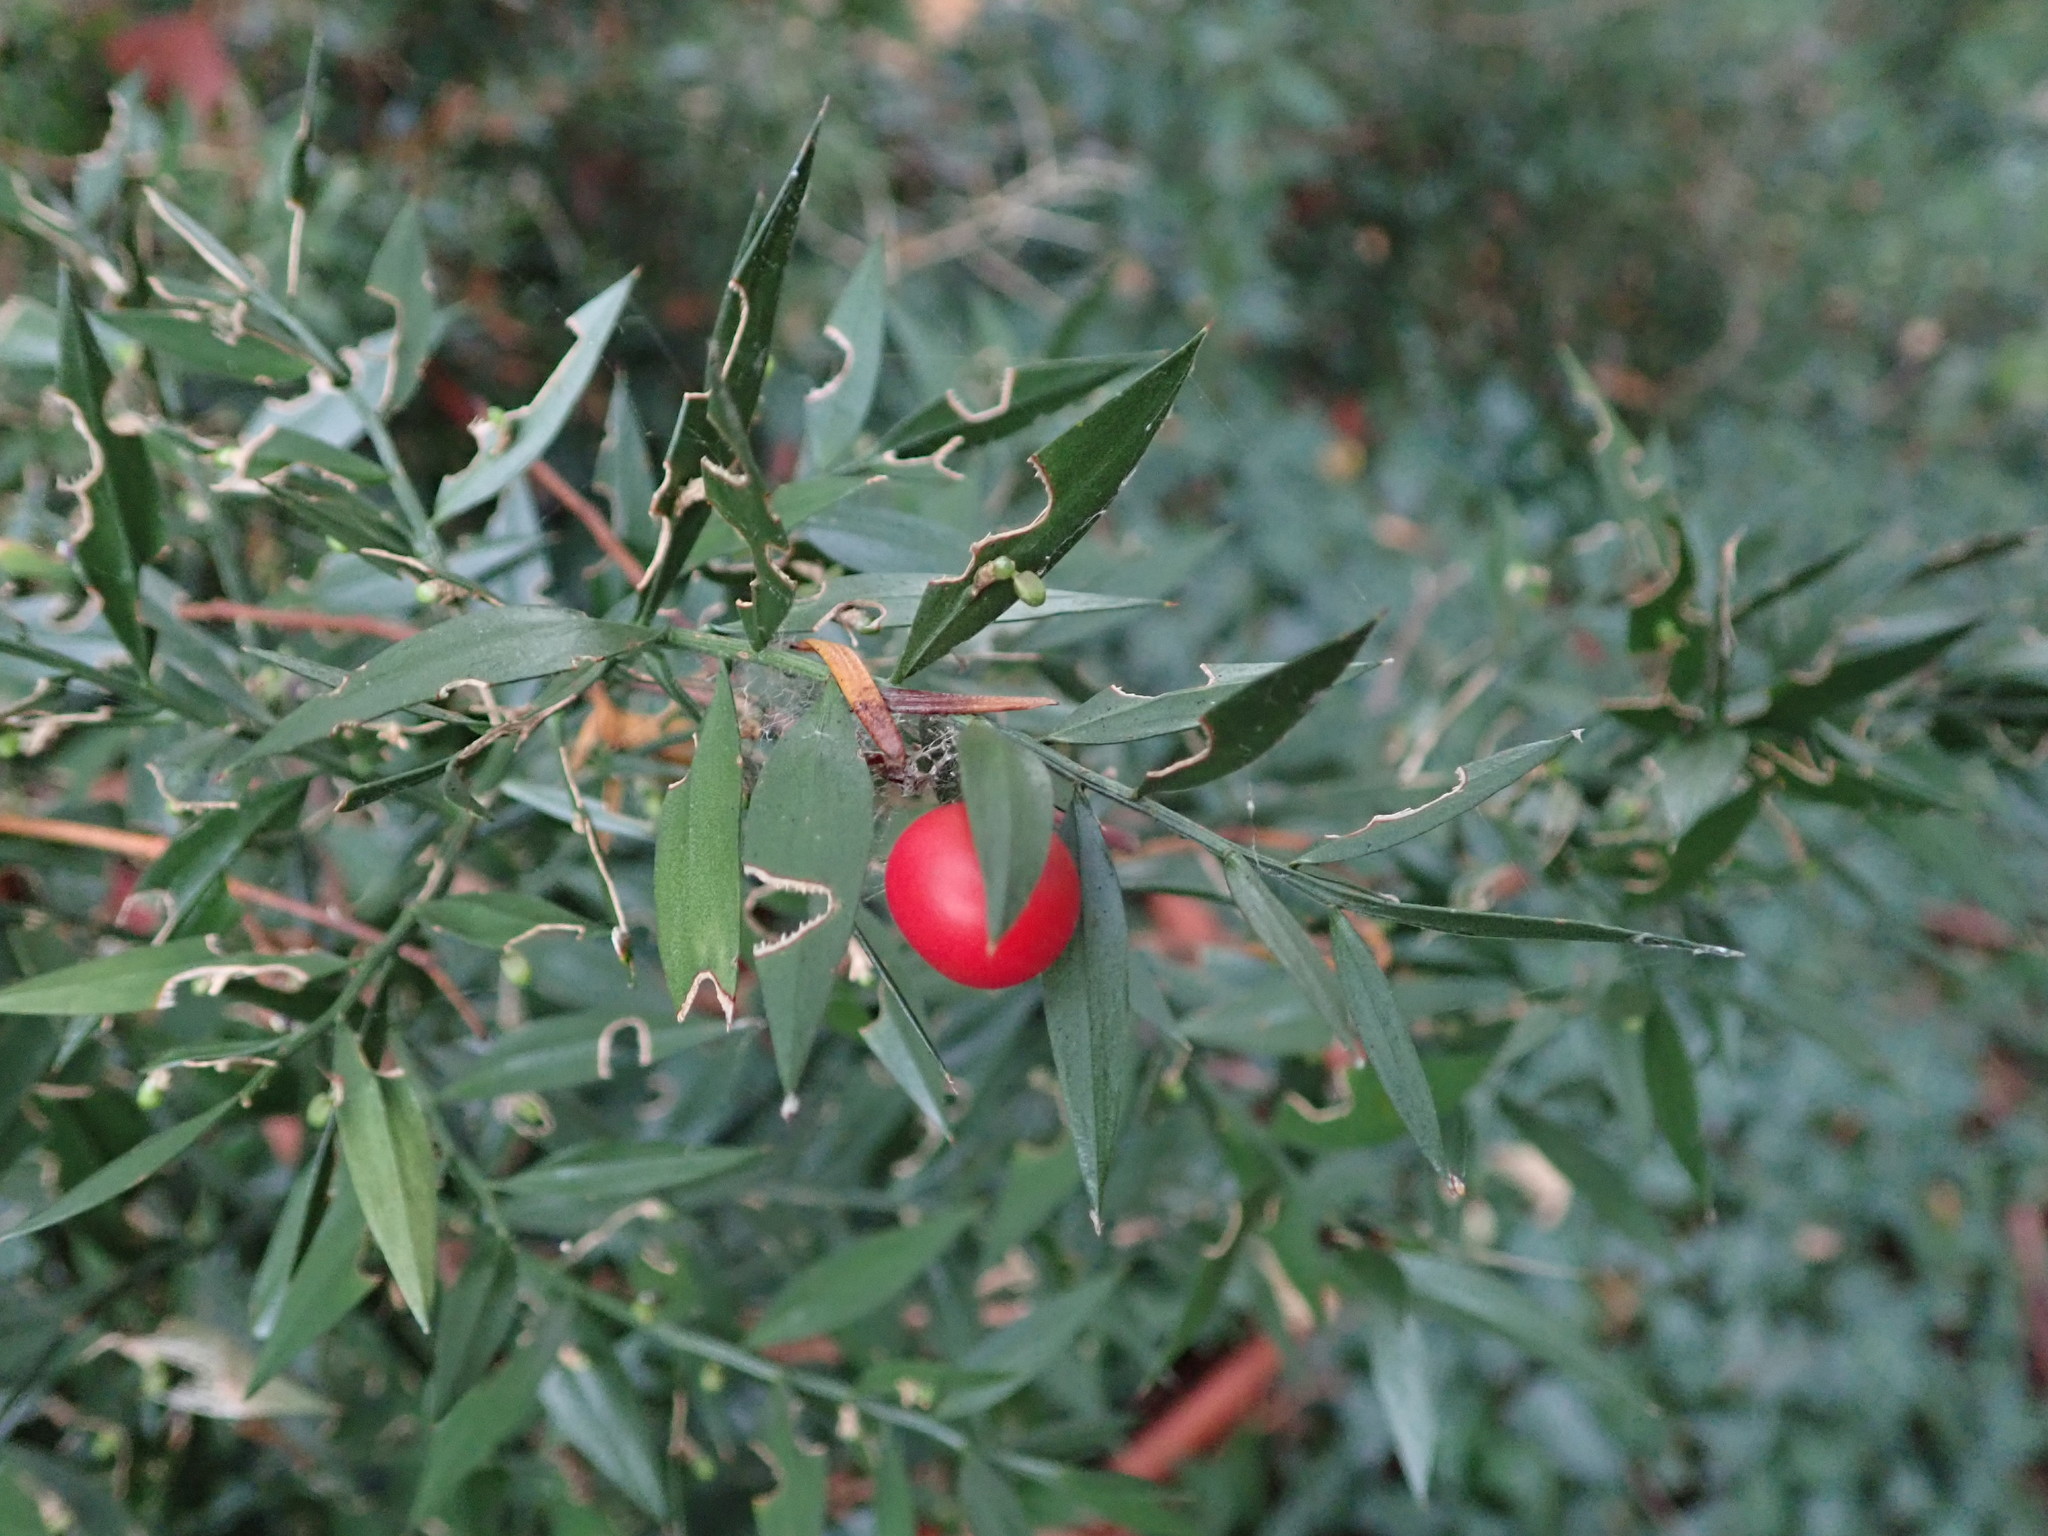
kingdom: Plantae
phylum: Tracheophyta
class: Liliopsida
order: Asparagales
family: Asparagaceae
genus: Ruscus
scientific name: Ruscus aculeatus
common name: Butcher's-broom
